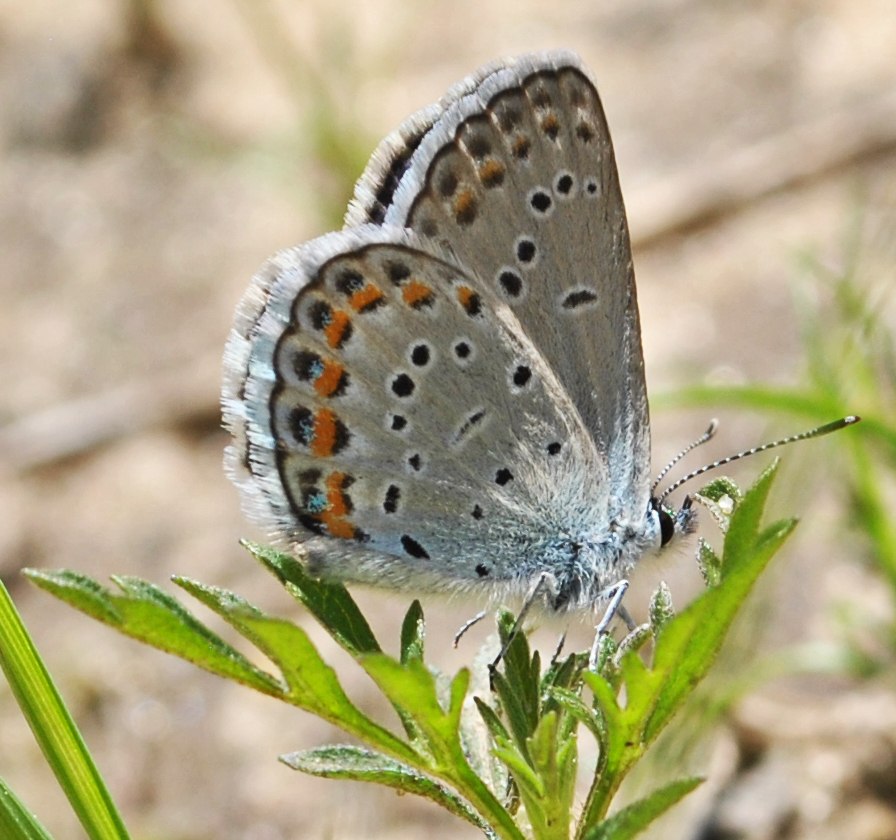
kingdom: Animalia
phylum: Arthropoda
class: Insecta
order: Lepidoptera
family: Lycaenidae
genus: Plebejus
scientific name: Plebejus samuelis
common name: Karner blue
